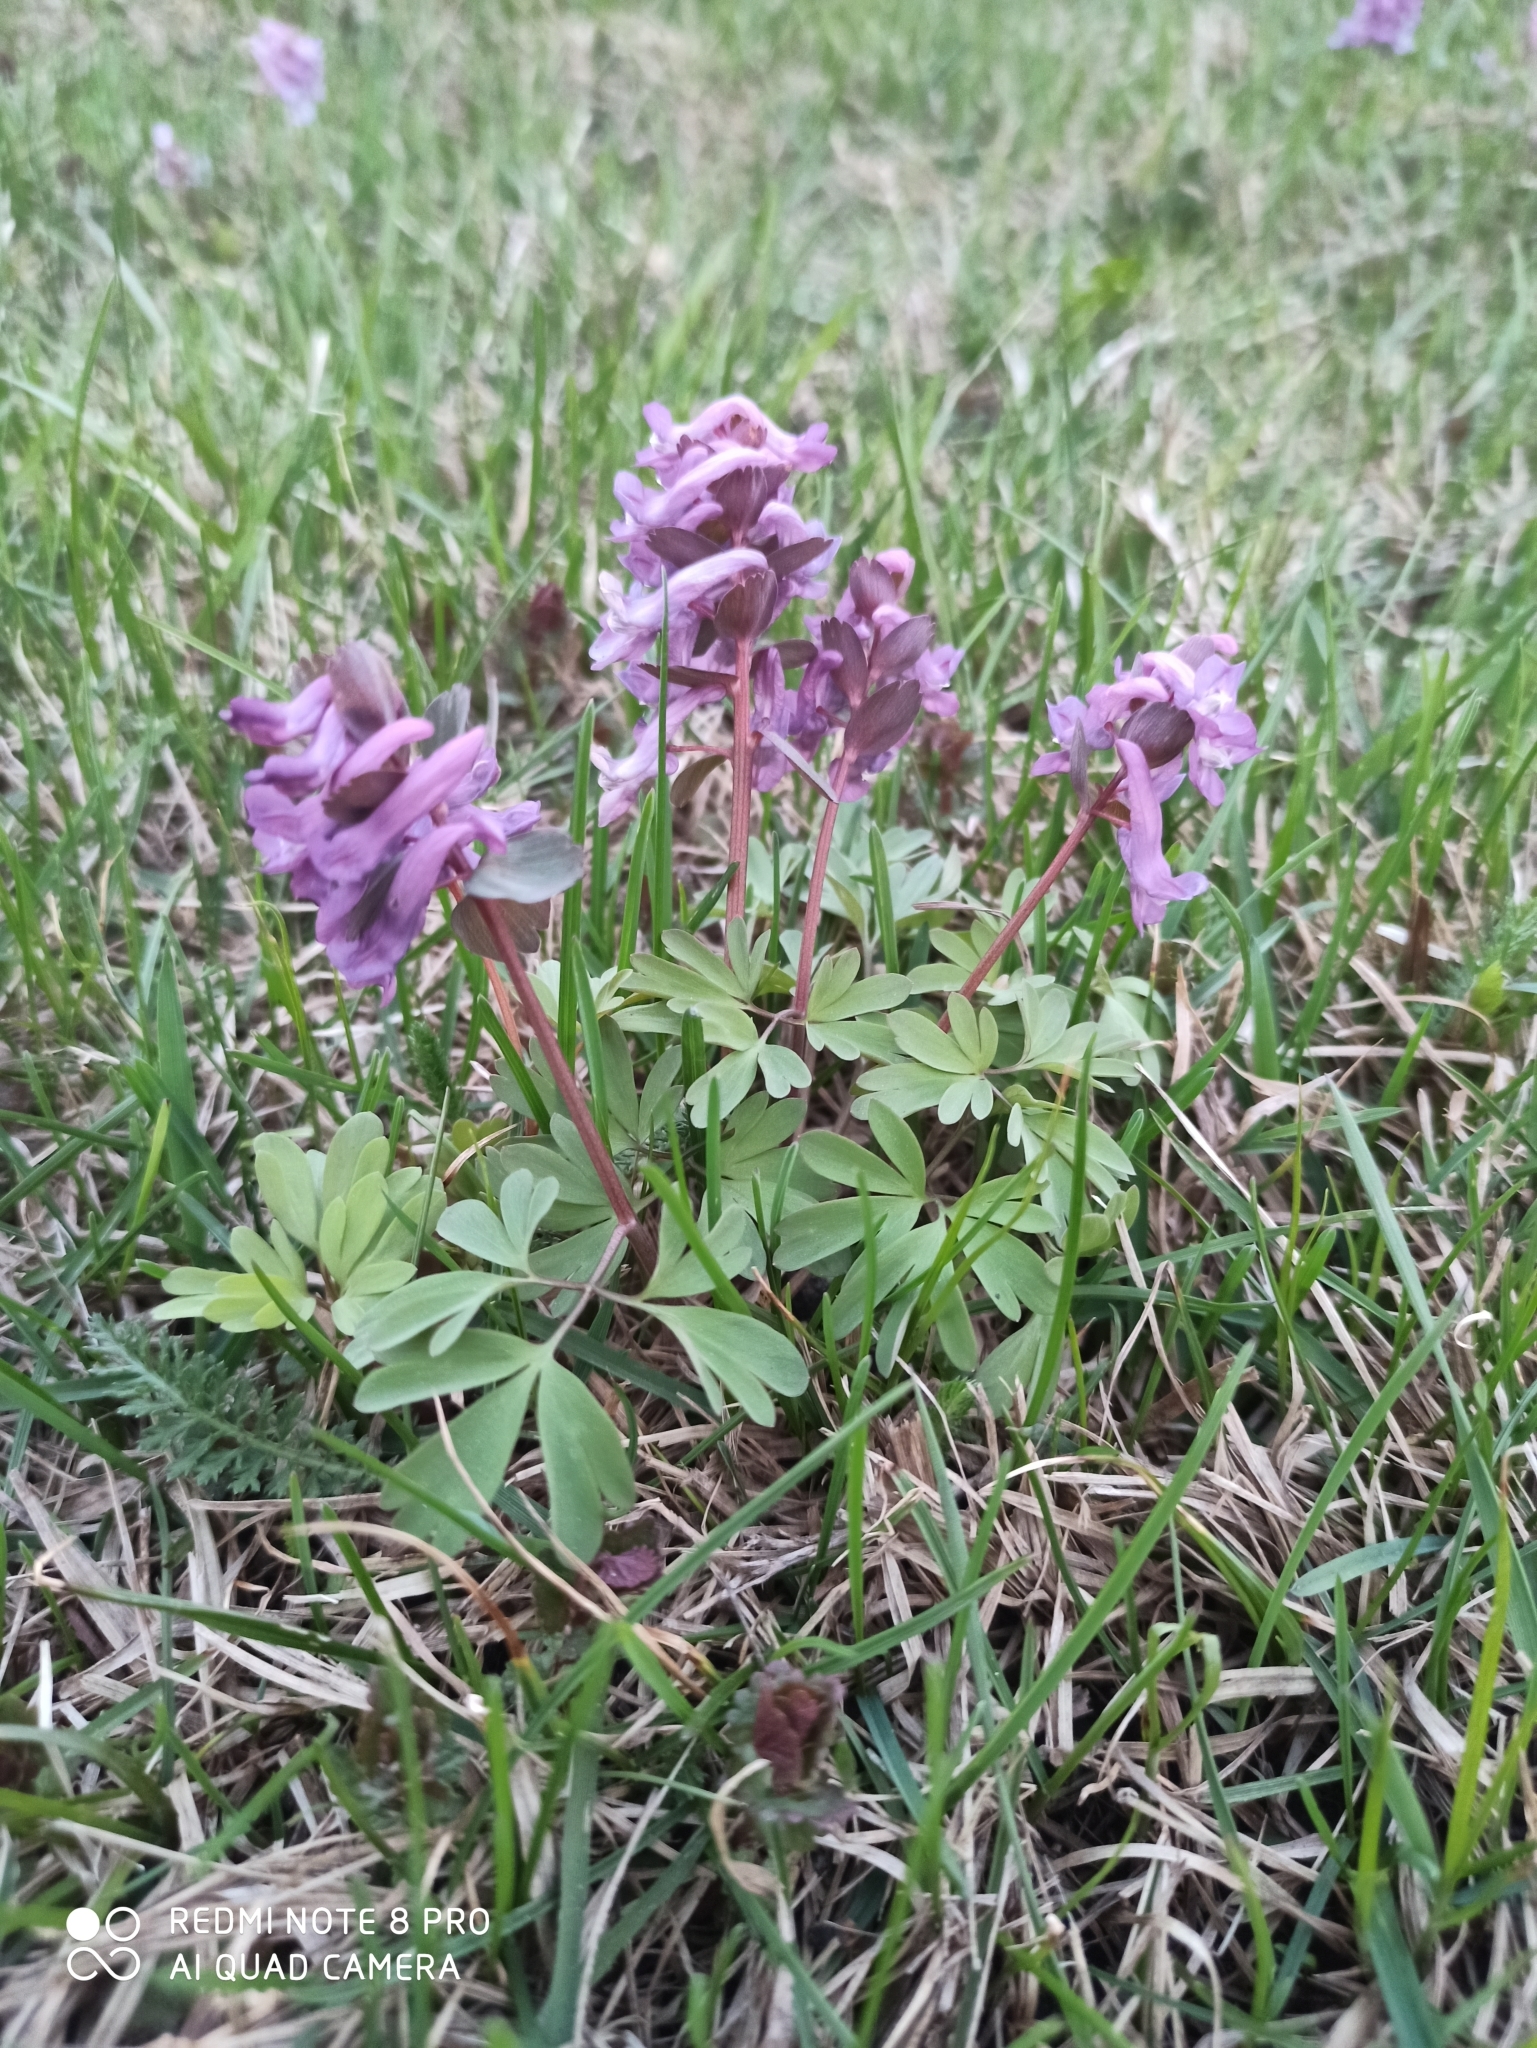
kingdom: Plantae
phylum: Tracheophyta
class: Magnoliopsida
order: Ranunculales
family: Papaveraceae
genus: Corydalis
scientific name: Corydalis solida
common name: Bird-in-a-bush
